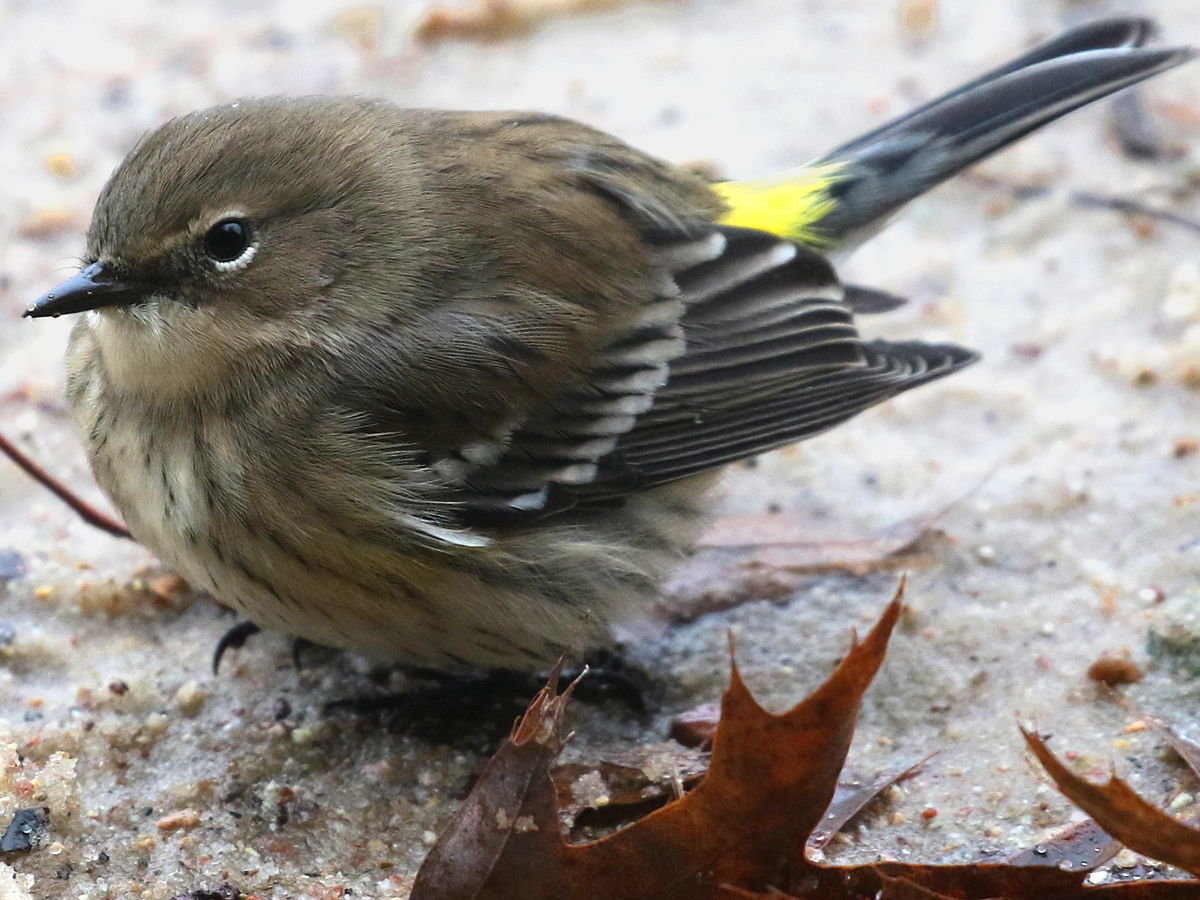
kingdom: Animalia
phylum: Chordata
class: Aves
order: Passeriformes
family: Parulidae
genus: Setophaga
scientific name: Setophaga coronata
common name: Myrtle warbler
